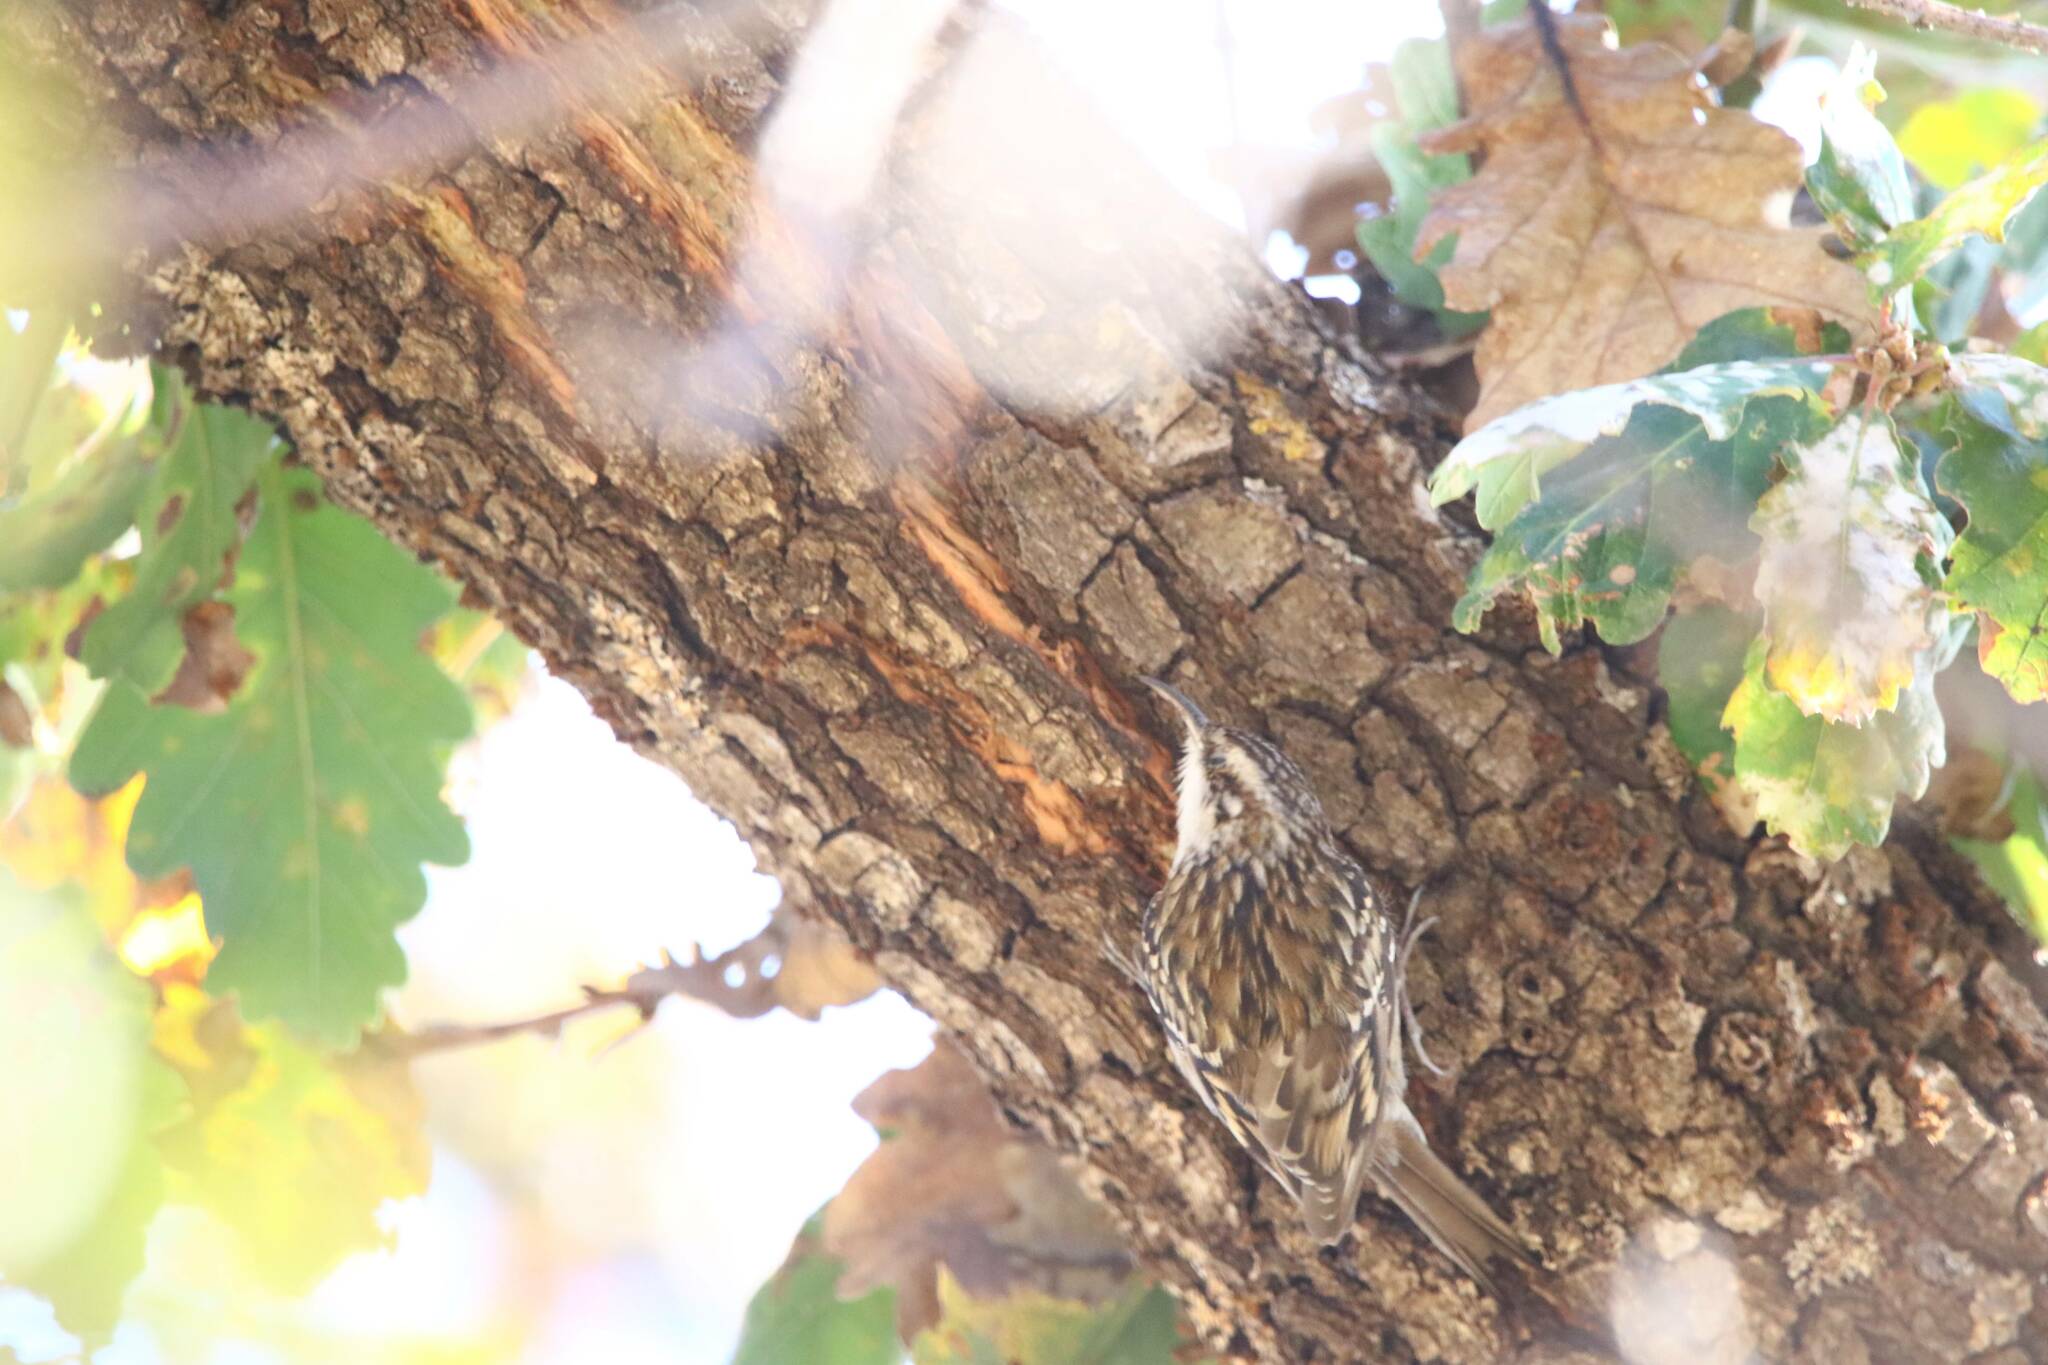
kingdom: Animalia
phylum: Chordata
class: Aves
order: Passeriformes
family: Certhiidae
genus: Certhia
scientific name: Certhia brachydactyla
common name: Short-toed treecreeper
